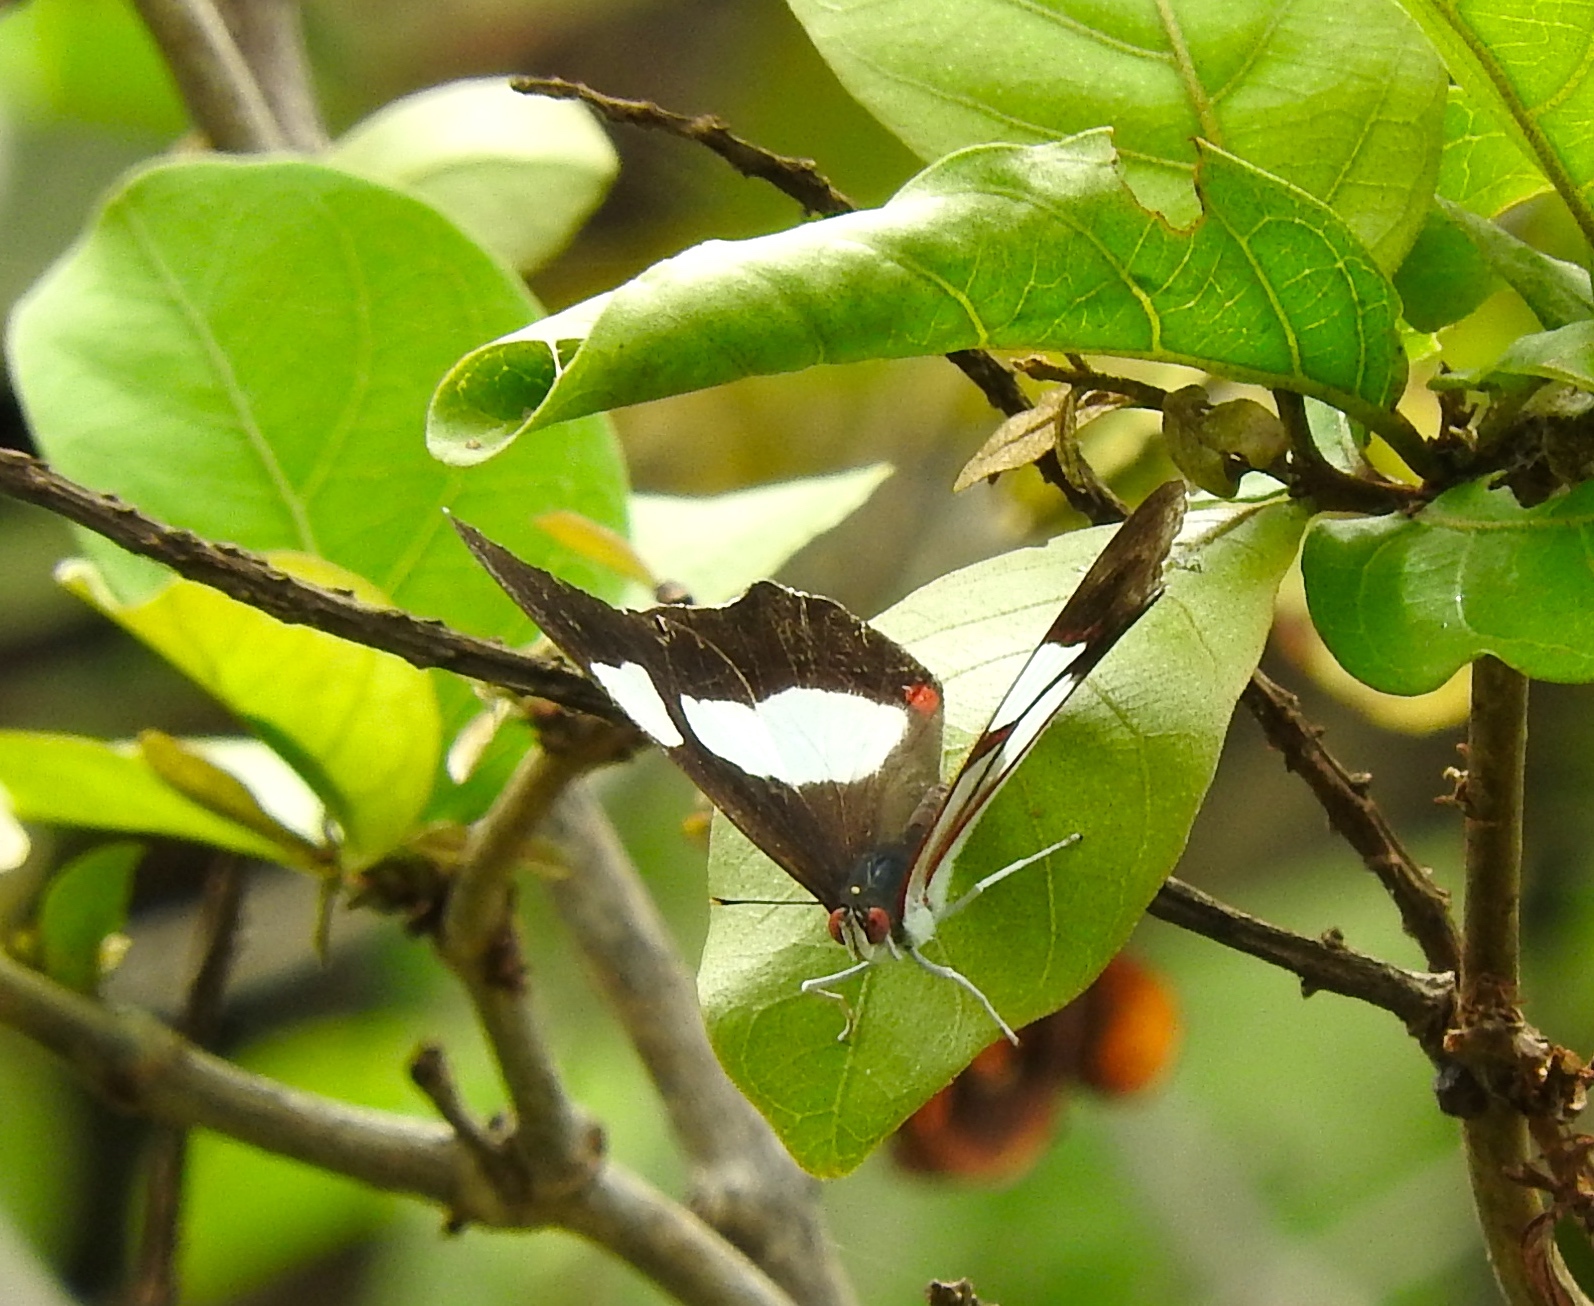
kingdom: Animalia
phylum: Arthropoda
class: Insecta
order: Lepidoptera
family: Nymphalidae
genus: Pyrrhogyra
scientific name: Pyrrhogyra neaerea
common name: Leading red-ring
